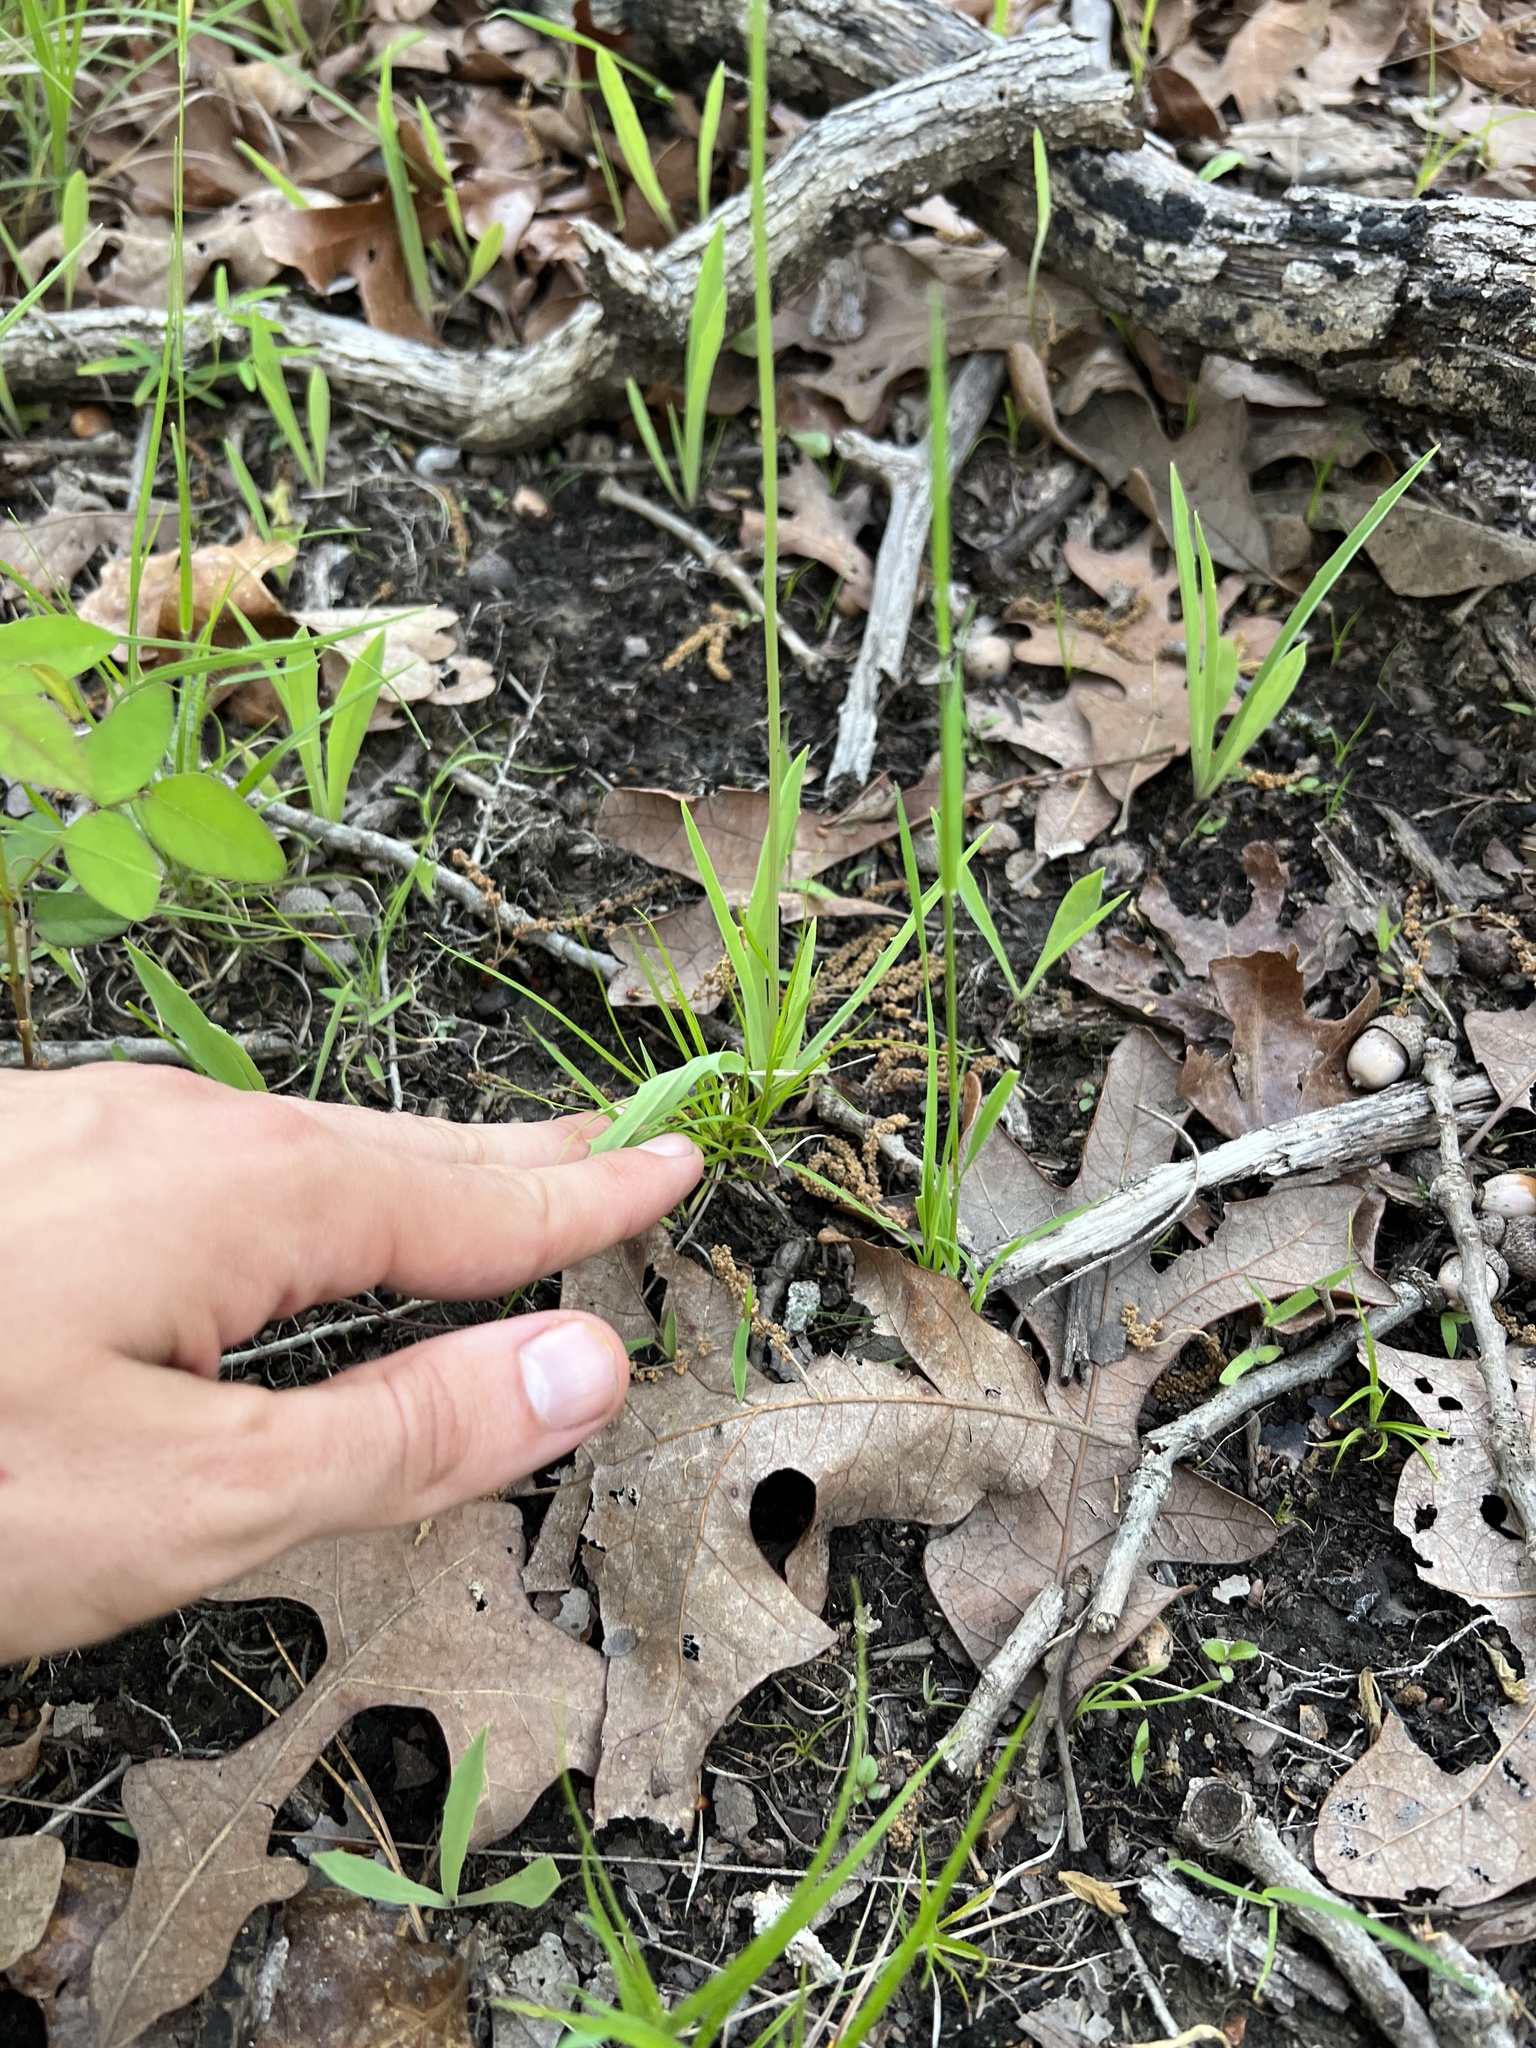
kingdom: Plantae
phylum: Tracheophyta
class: Magnoliopsida
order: Asterales
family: Asteraceae
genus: Krigia
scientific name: Krigia dandelion
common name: Colonial dwarf-dandelion
